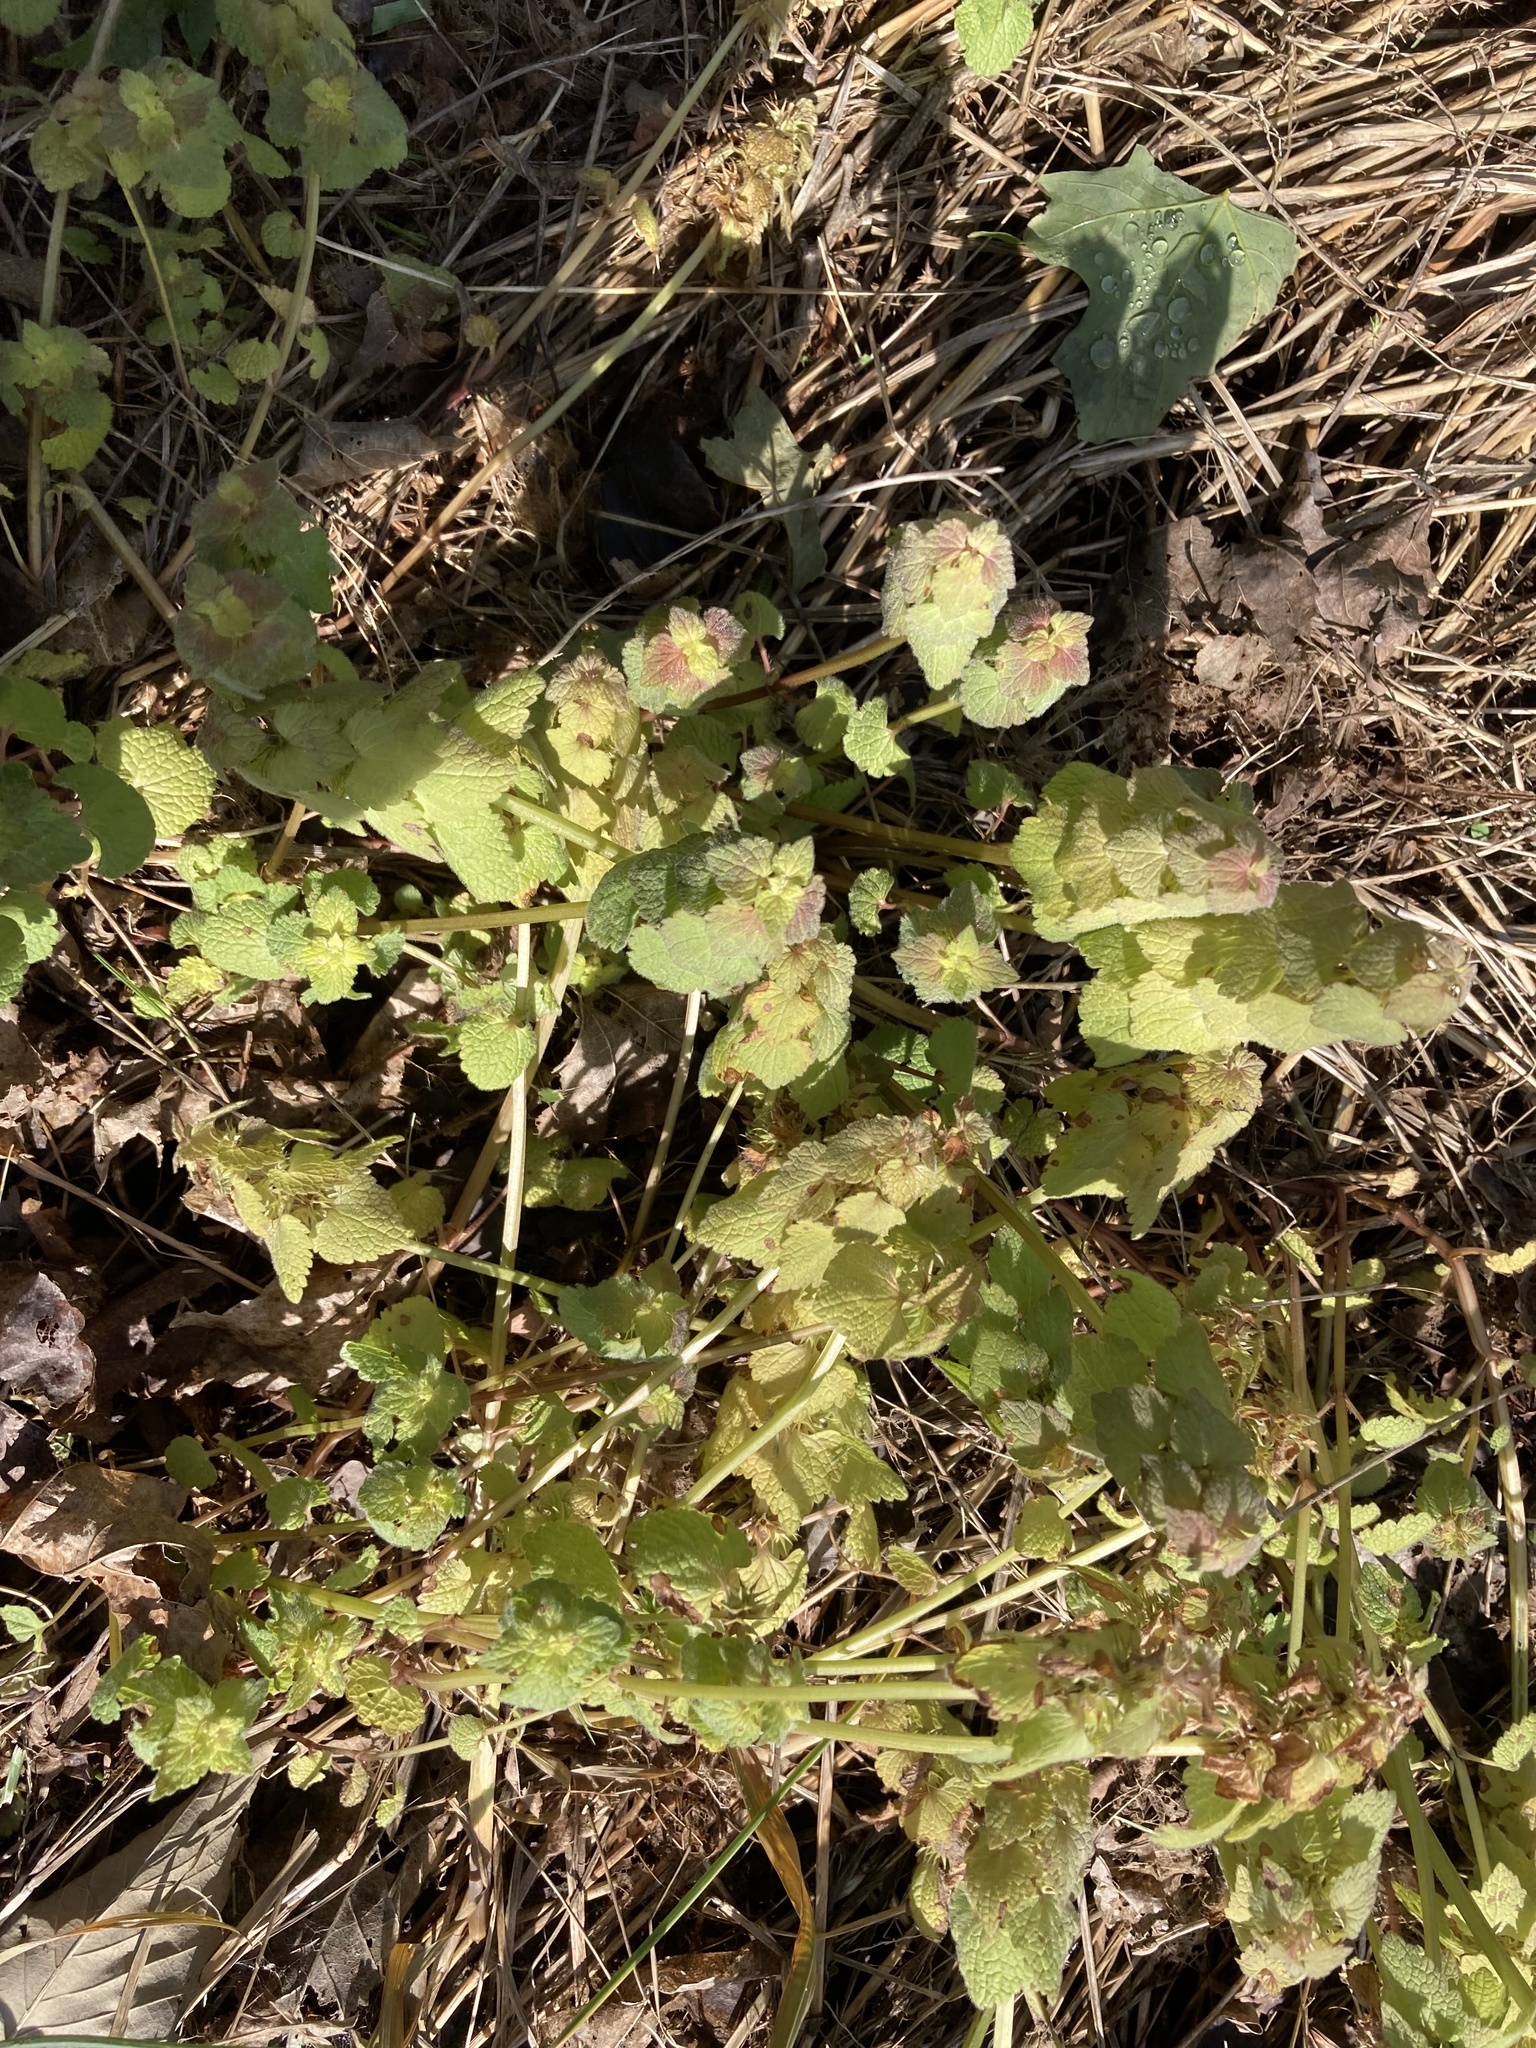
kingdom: Plantae
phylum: Tracheophyta
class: Magnoliopsida
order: Lamiales
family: Lamiaceae
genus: Lamium
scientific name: Lamium purpureum
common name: Red dead-nettle
